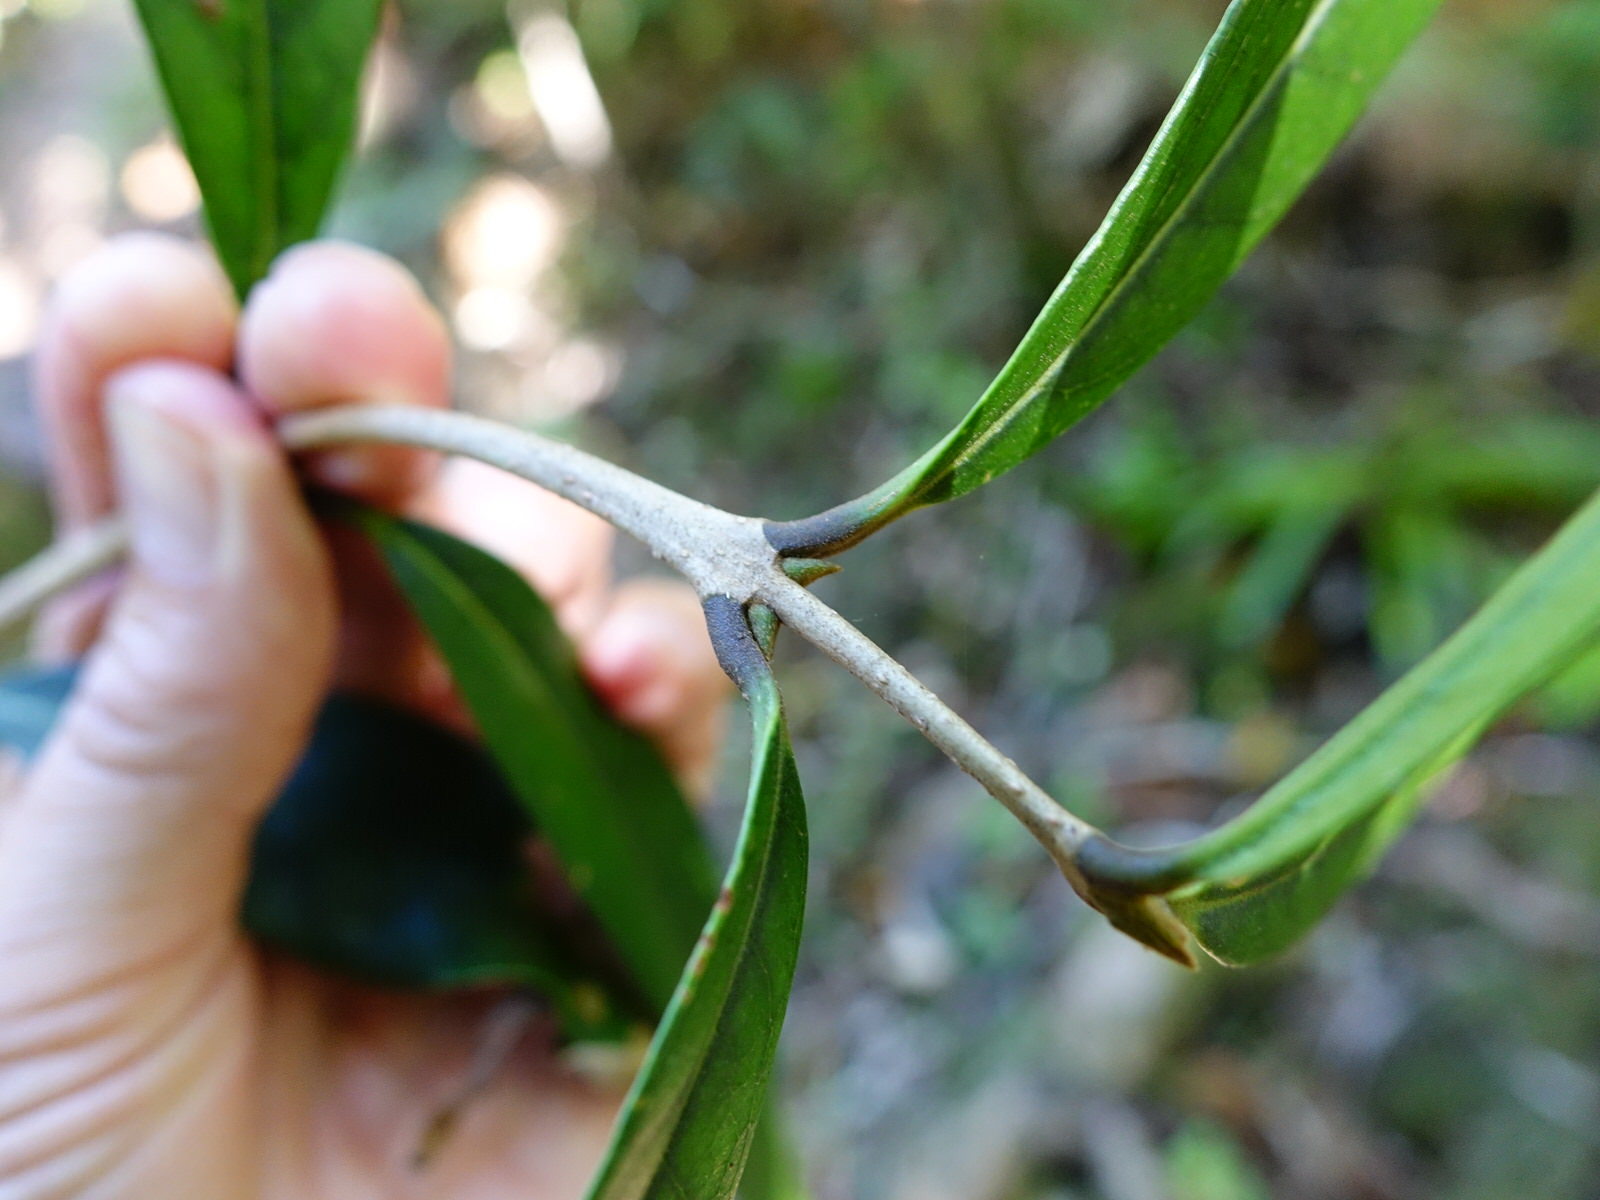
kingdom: Plantae
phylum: Tracheophyta
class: Magnoliopsida
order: Lamiales
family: Oleaceae
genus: Nestegis
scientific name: Nestegis cunninghamii
